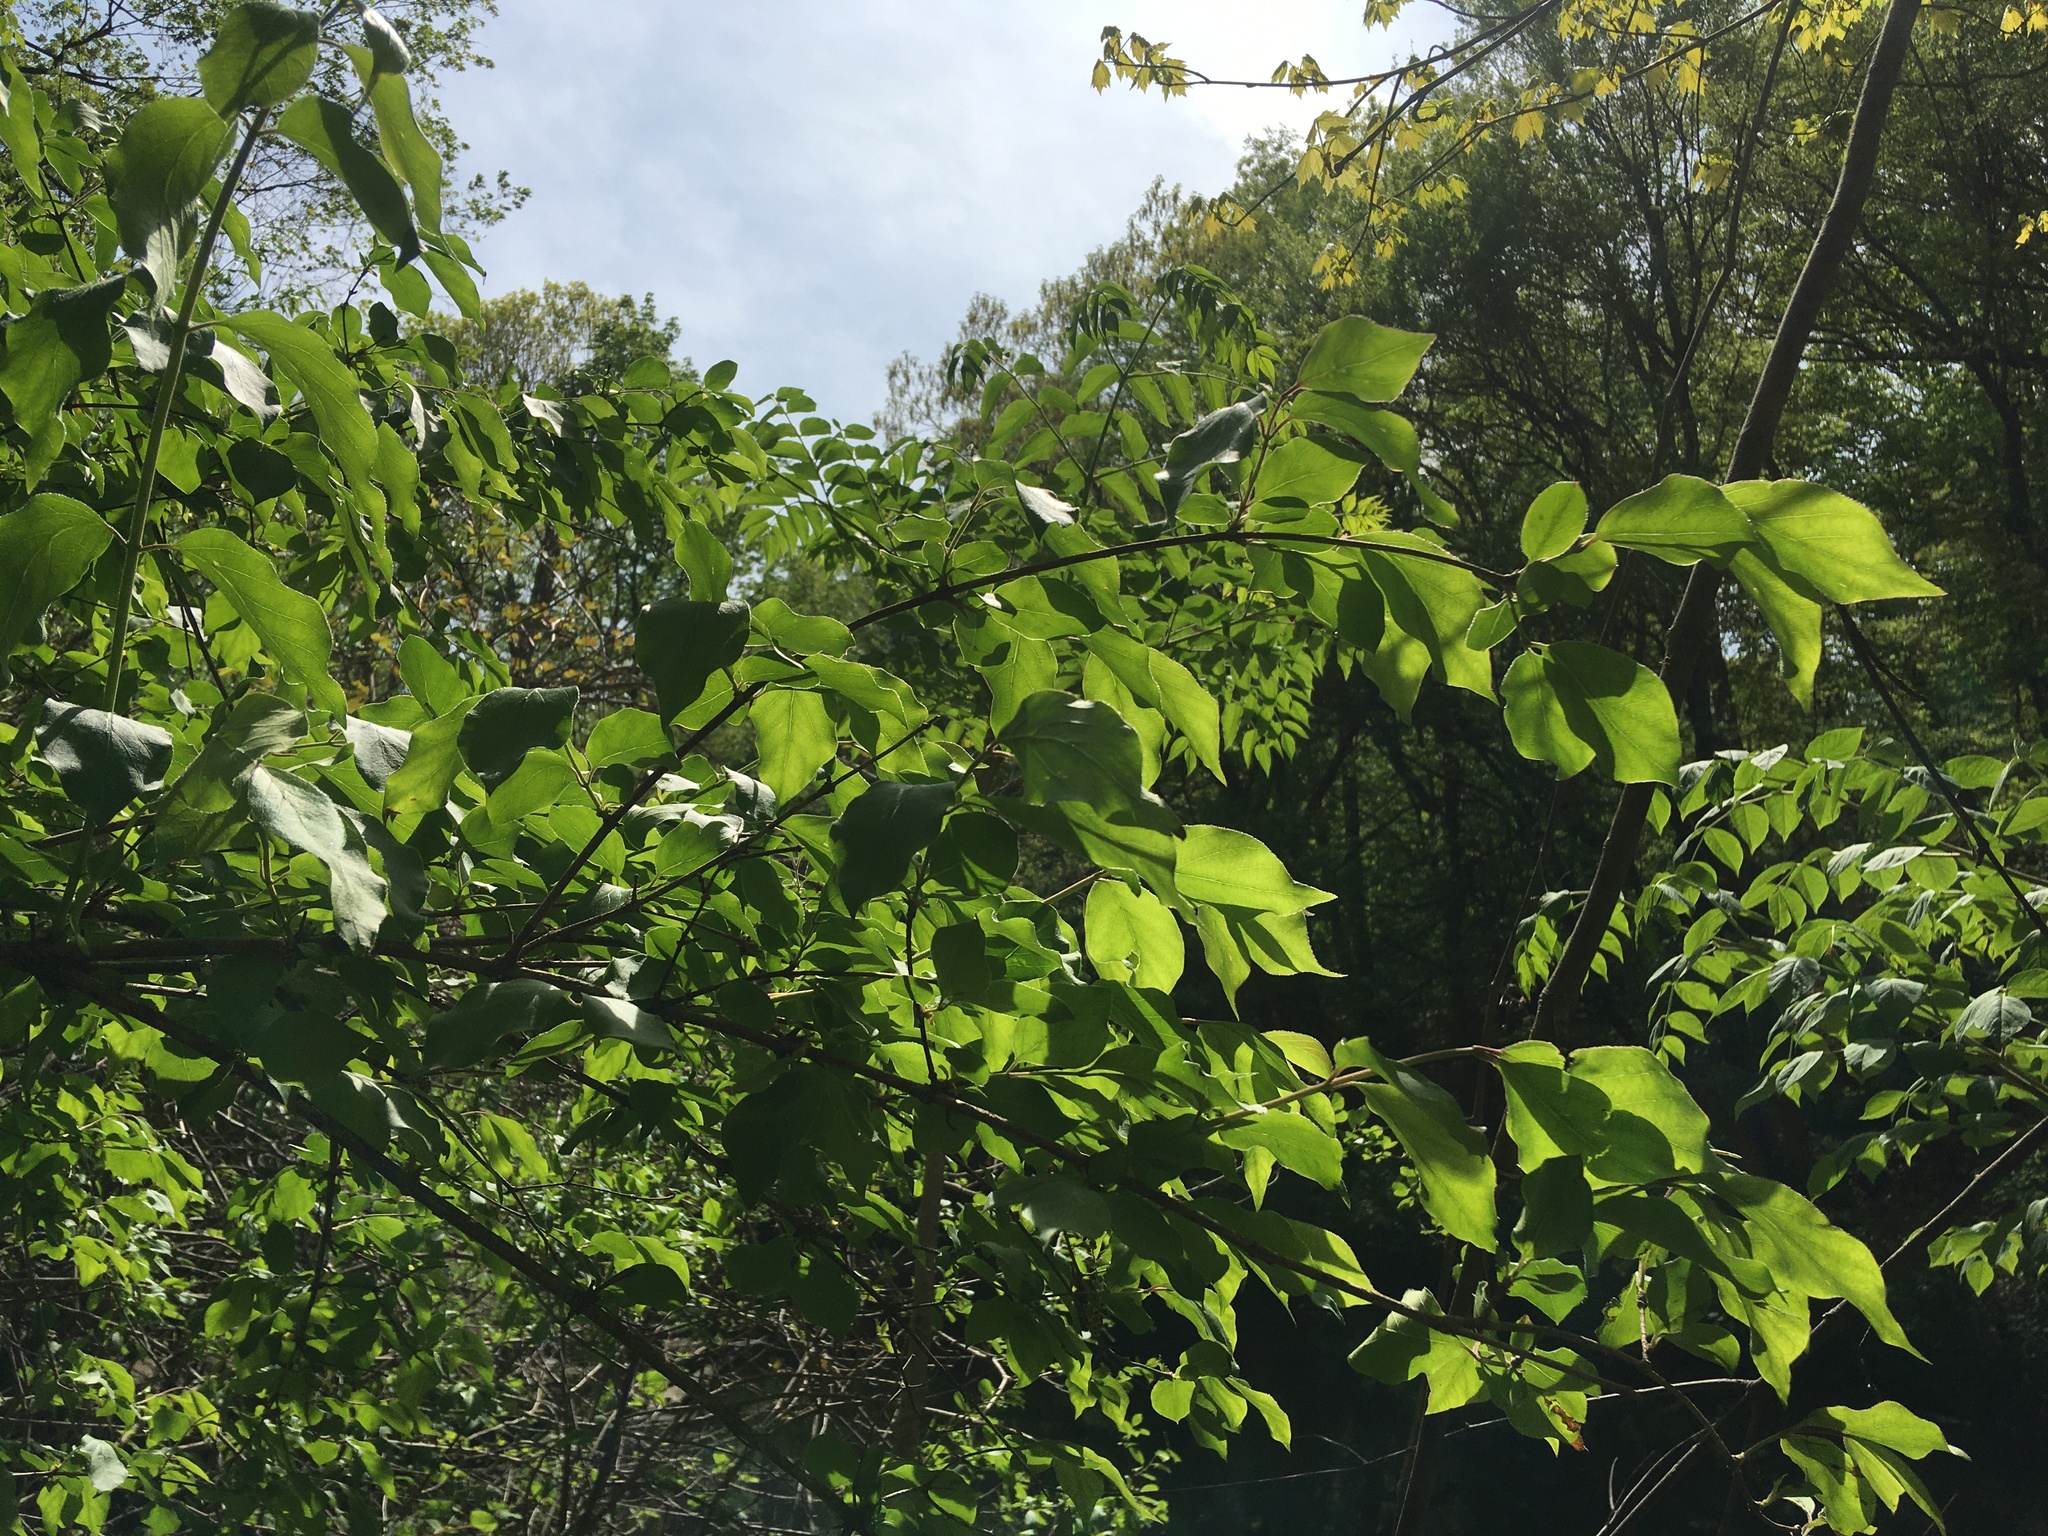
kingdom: Plantae
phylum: Tracheophyta
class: Magnoliopsida
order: Dipsacales
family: Caprifoliaceae
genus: Lonicera
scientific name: Lonicera maackii
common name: Amur honeysuckle
